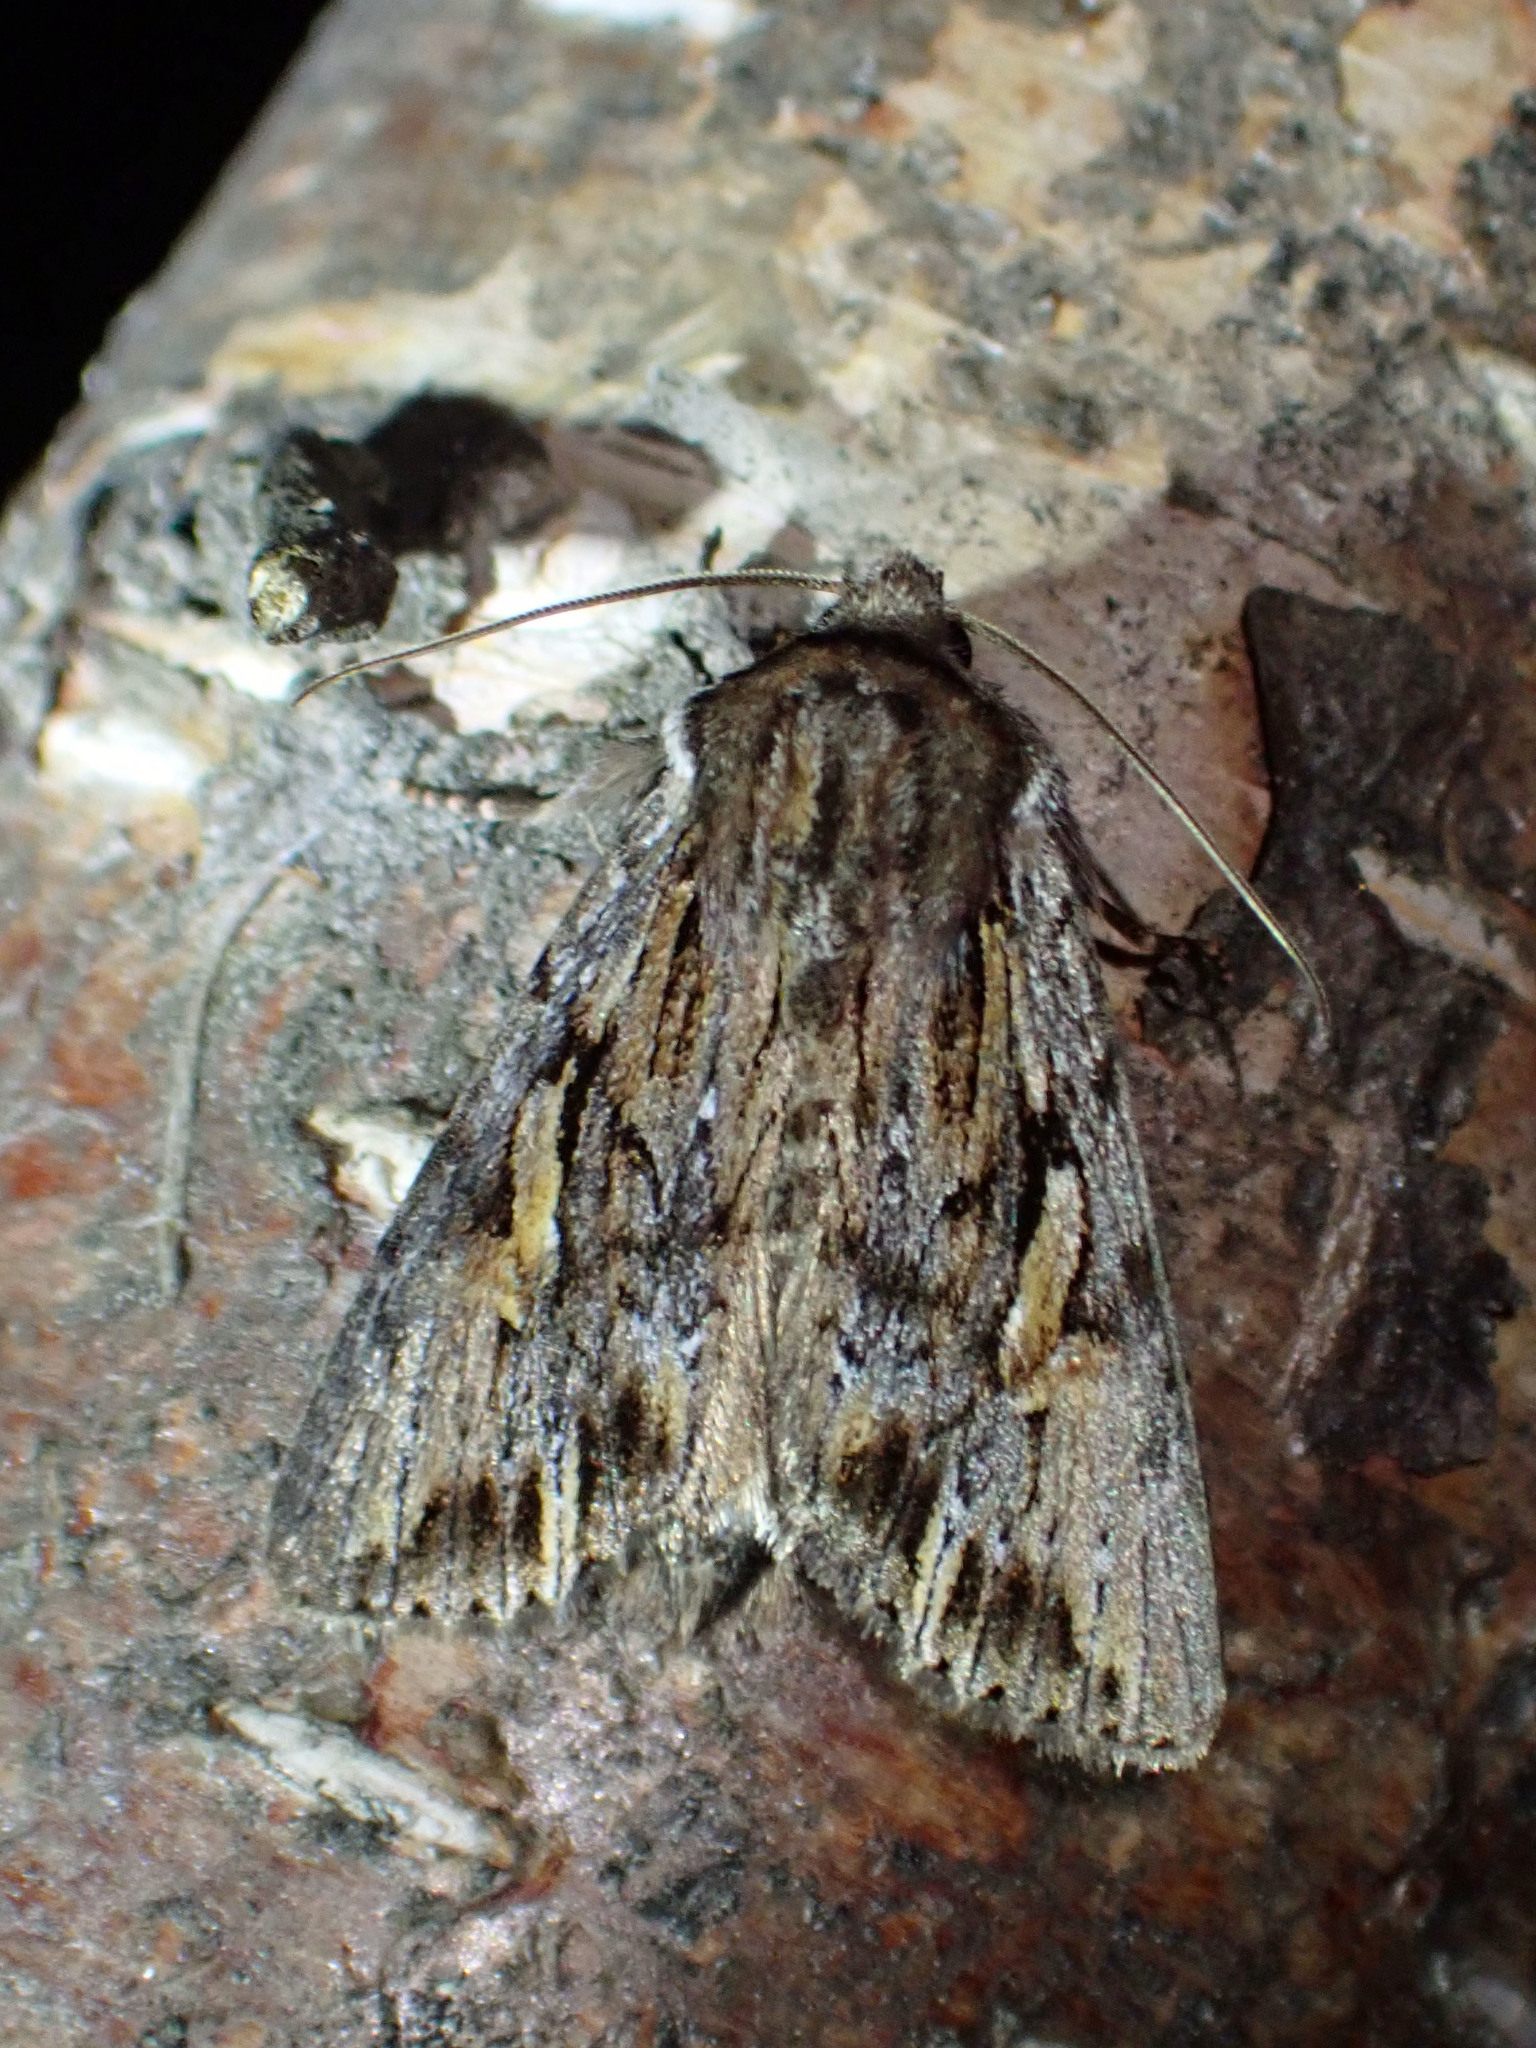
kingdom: Animalia
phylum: Arthropoda
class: Insecta
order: Lepidoptera
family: Noctuidae
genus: Achatia
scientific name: Achatia evicta
